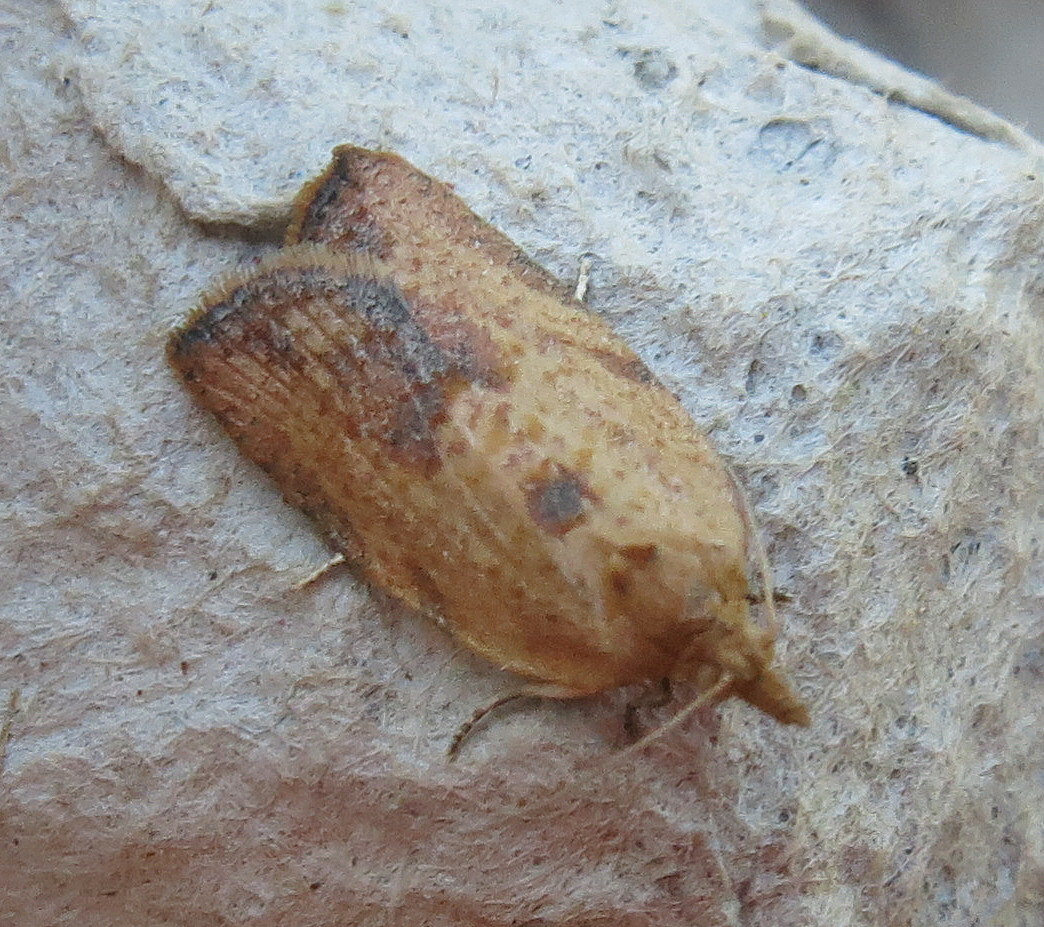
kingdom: Animalia
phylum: Arthropoda
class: Insecta
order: Lepidoptera
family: Tortricidae
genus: Epiphyas
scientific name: Epiphyas postvittana
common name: Light brown apple moth
